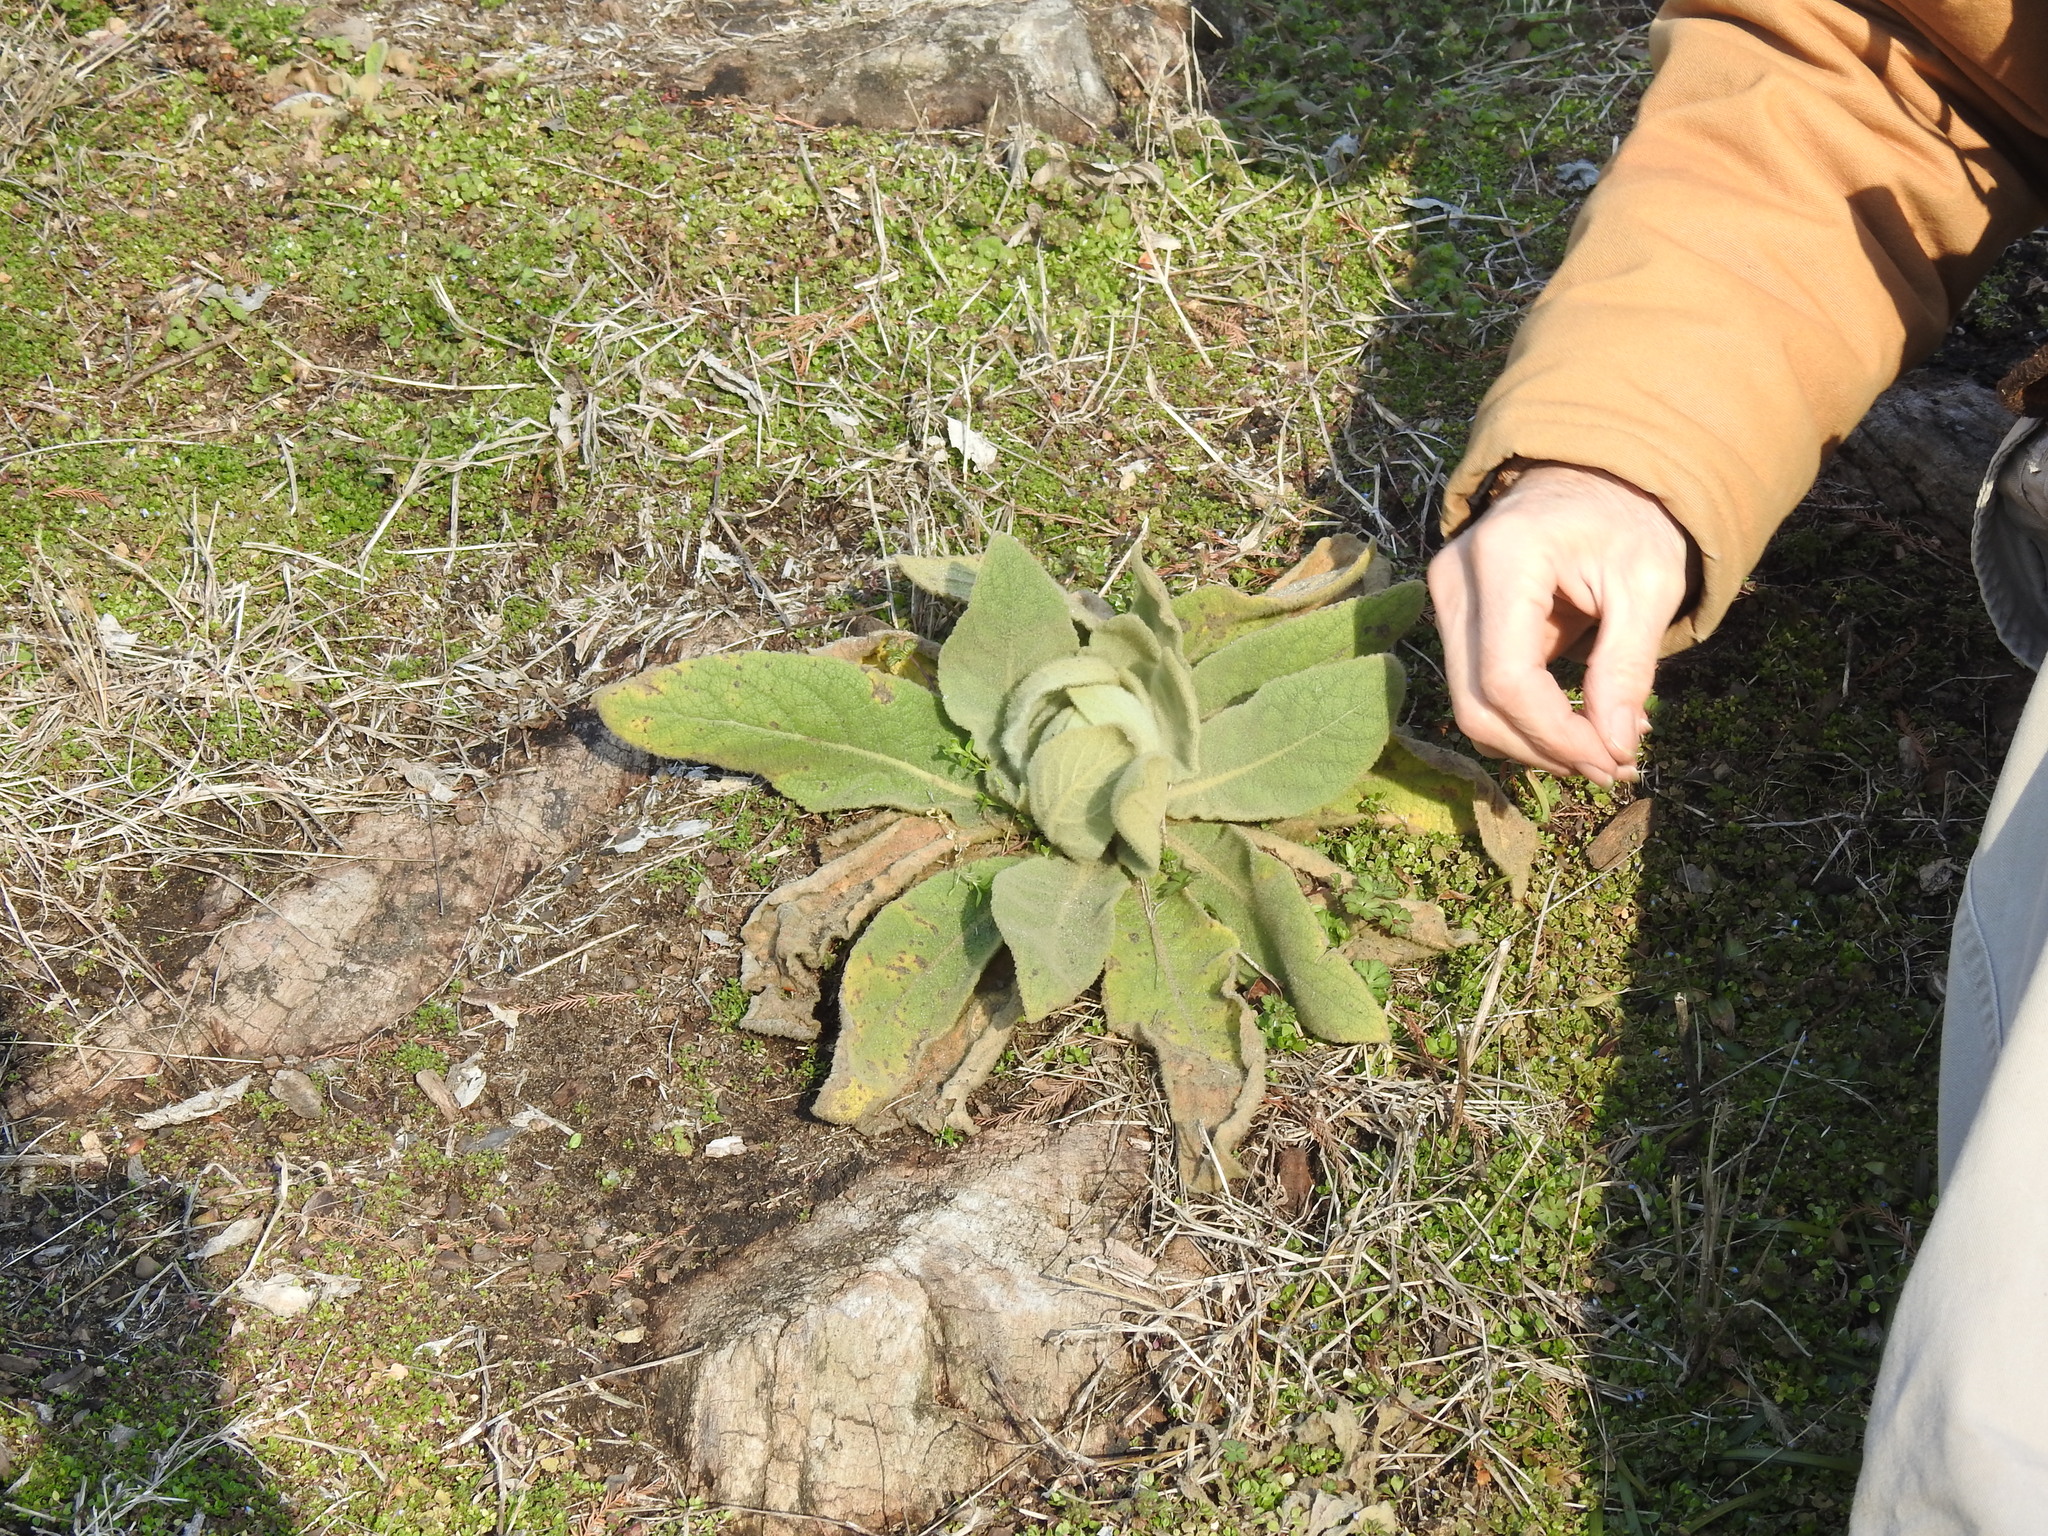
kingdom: Plantae
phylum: Tracheophyta
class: Magnoliopsida
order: Lamiales
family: Scrophulariaceae
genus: Verbascum
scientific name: Verbascum thapsus
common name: Common mullein
